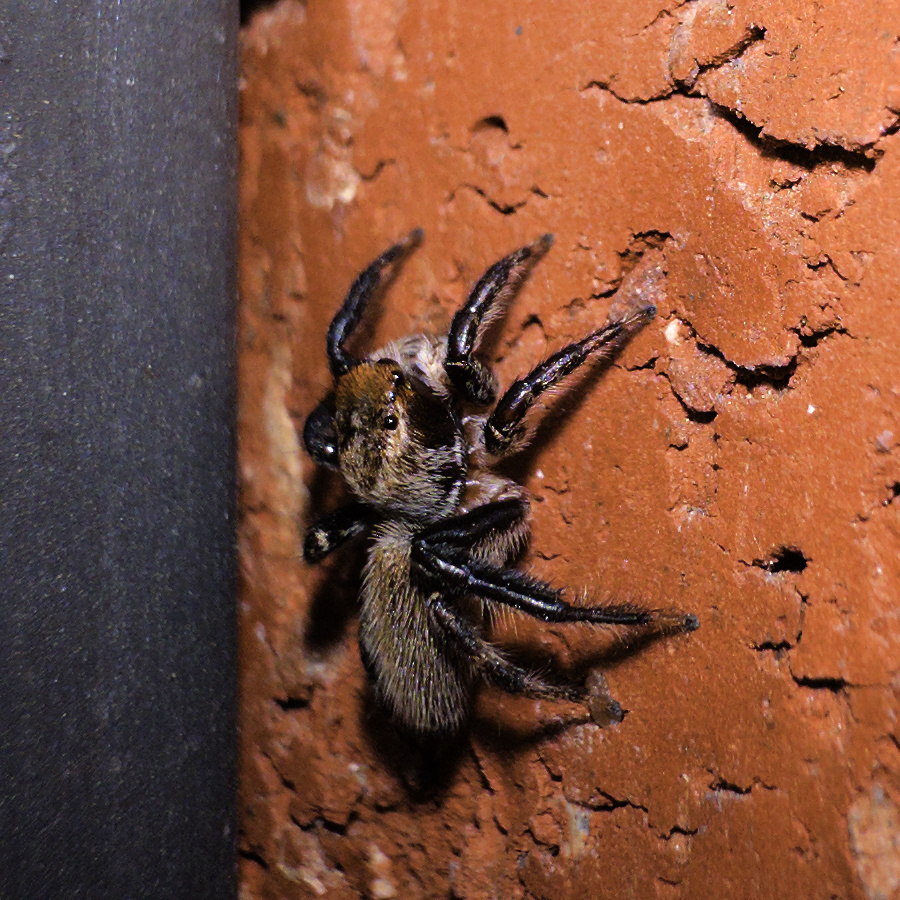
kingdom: Animalia
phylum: Arthropoda
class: Arachnida
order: Araneae
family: Salticidae
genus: Maratus
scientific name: Maratus griseus
